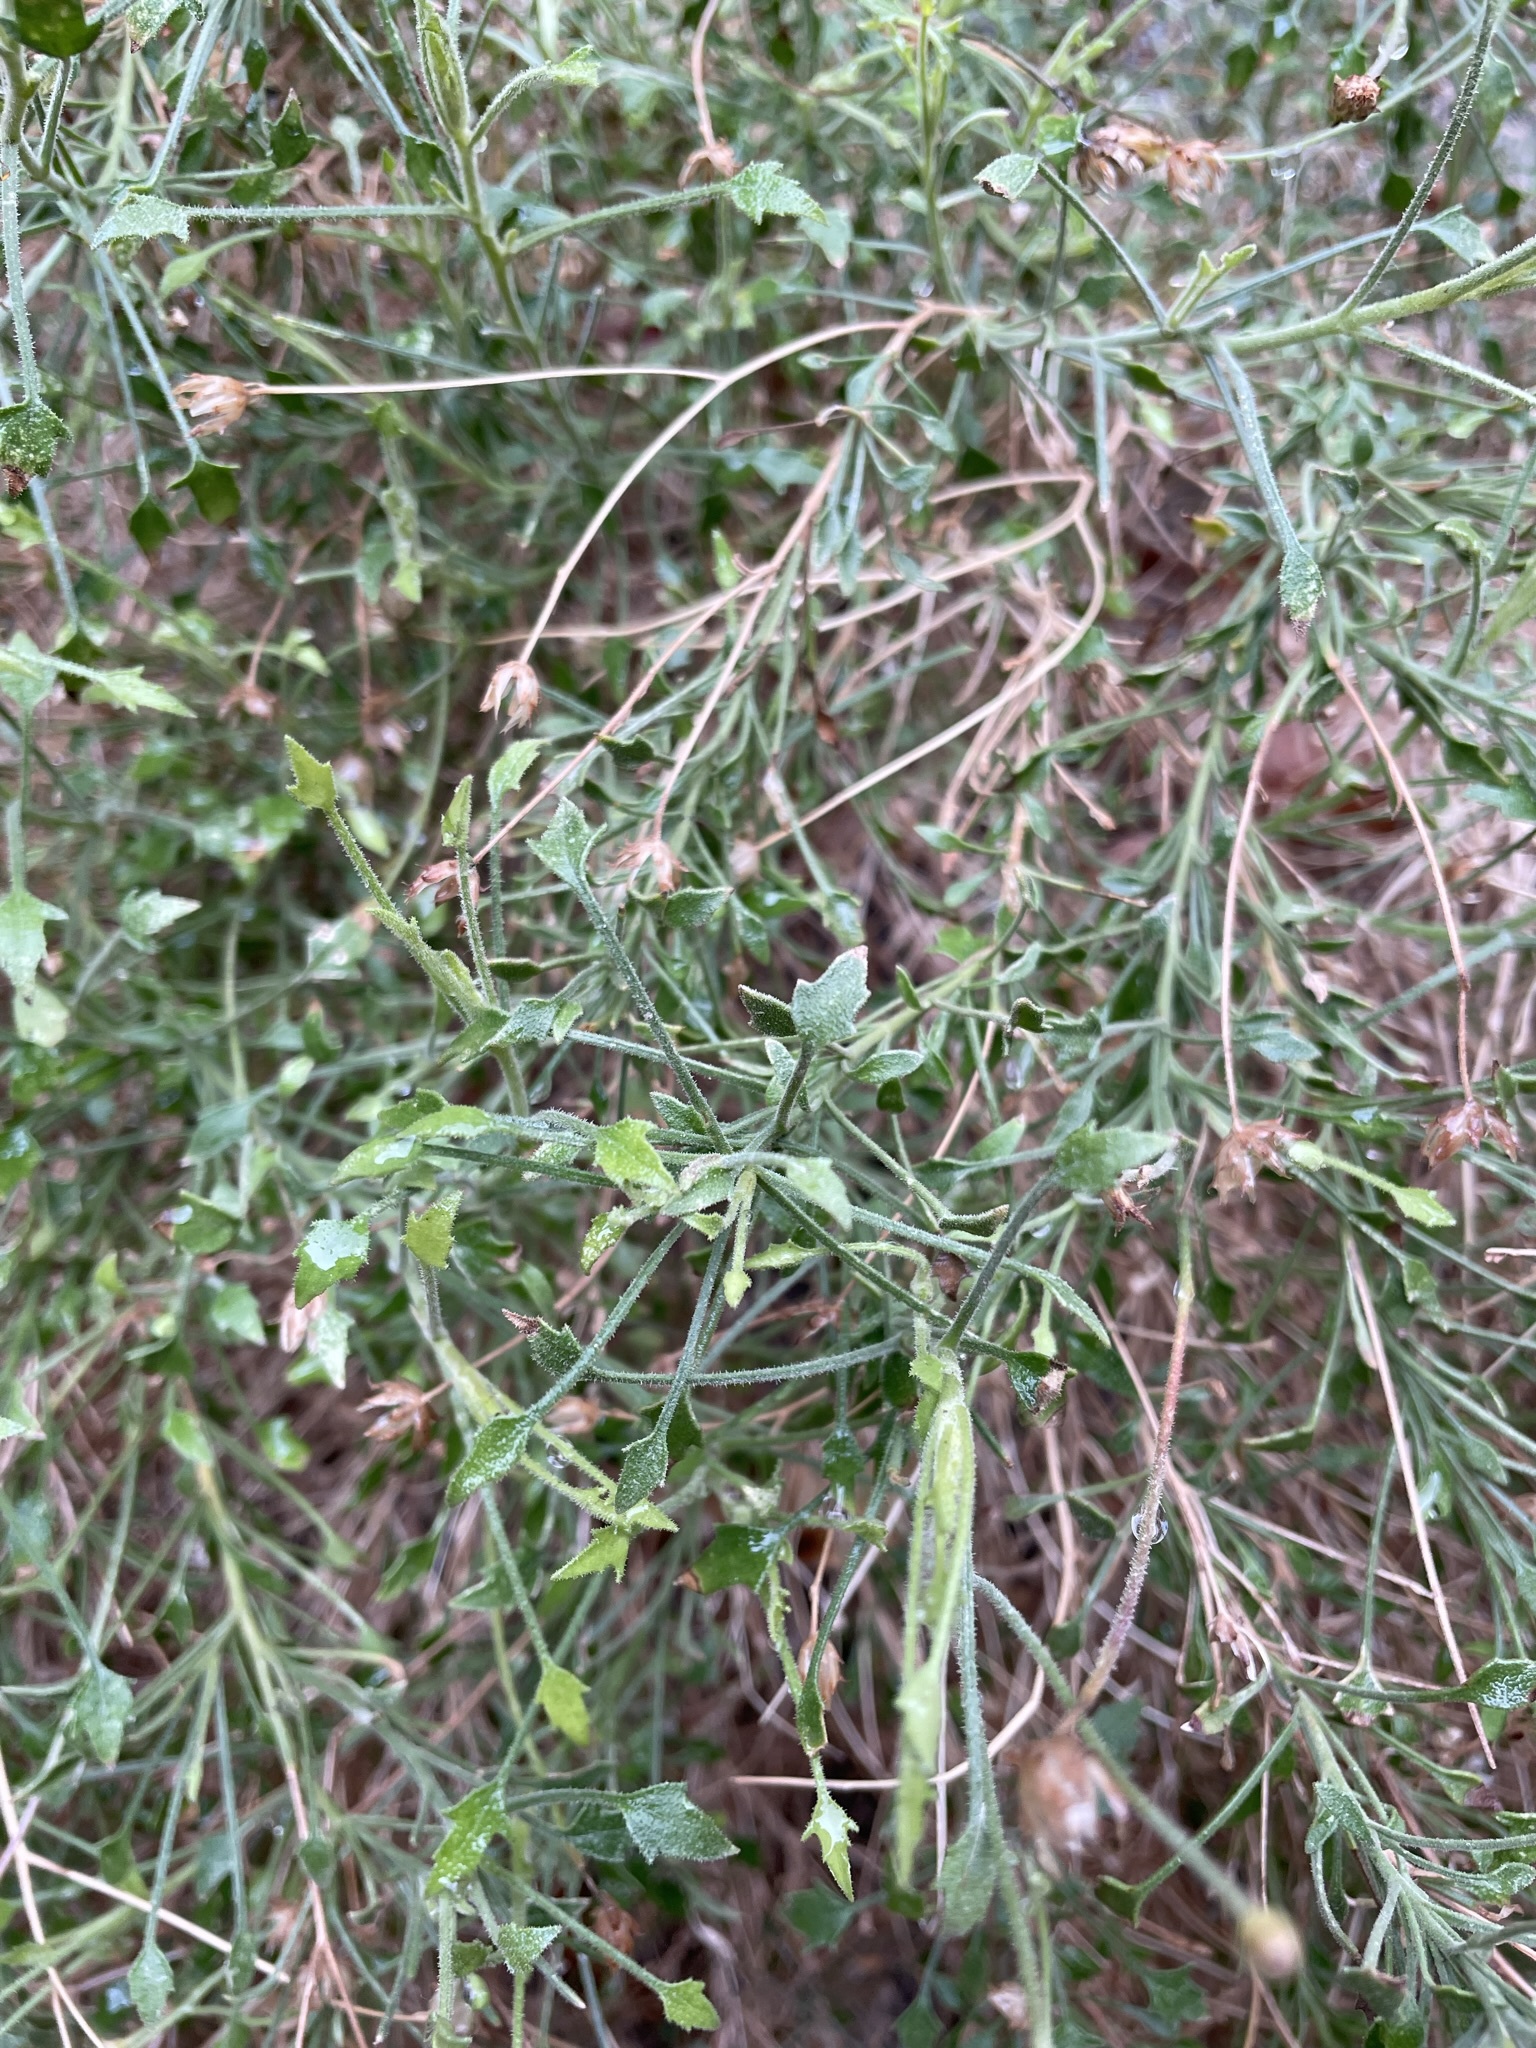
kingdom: Plantae
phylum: Tracheophyta
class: Magnoliopsida
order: Asterales
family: Asteraceae
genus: Pleurocoronis
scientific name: Pleurocoronis pluriseta
